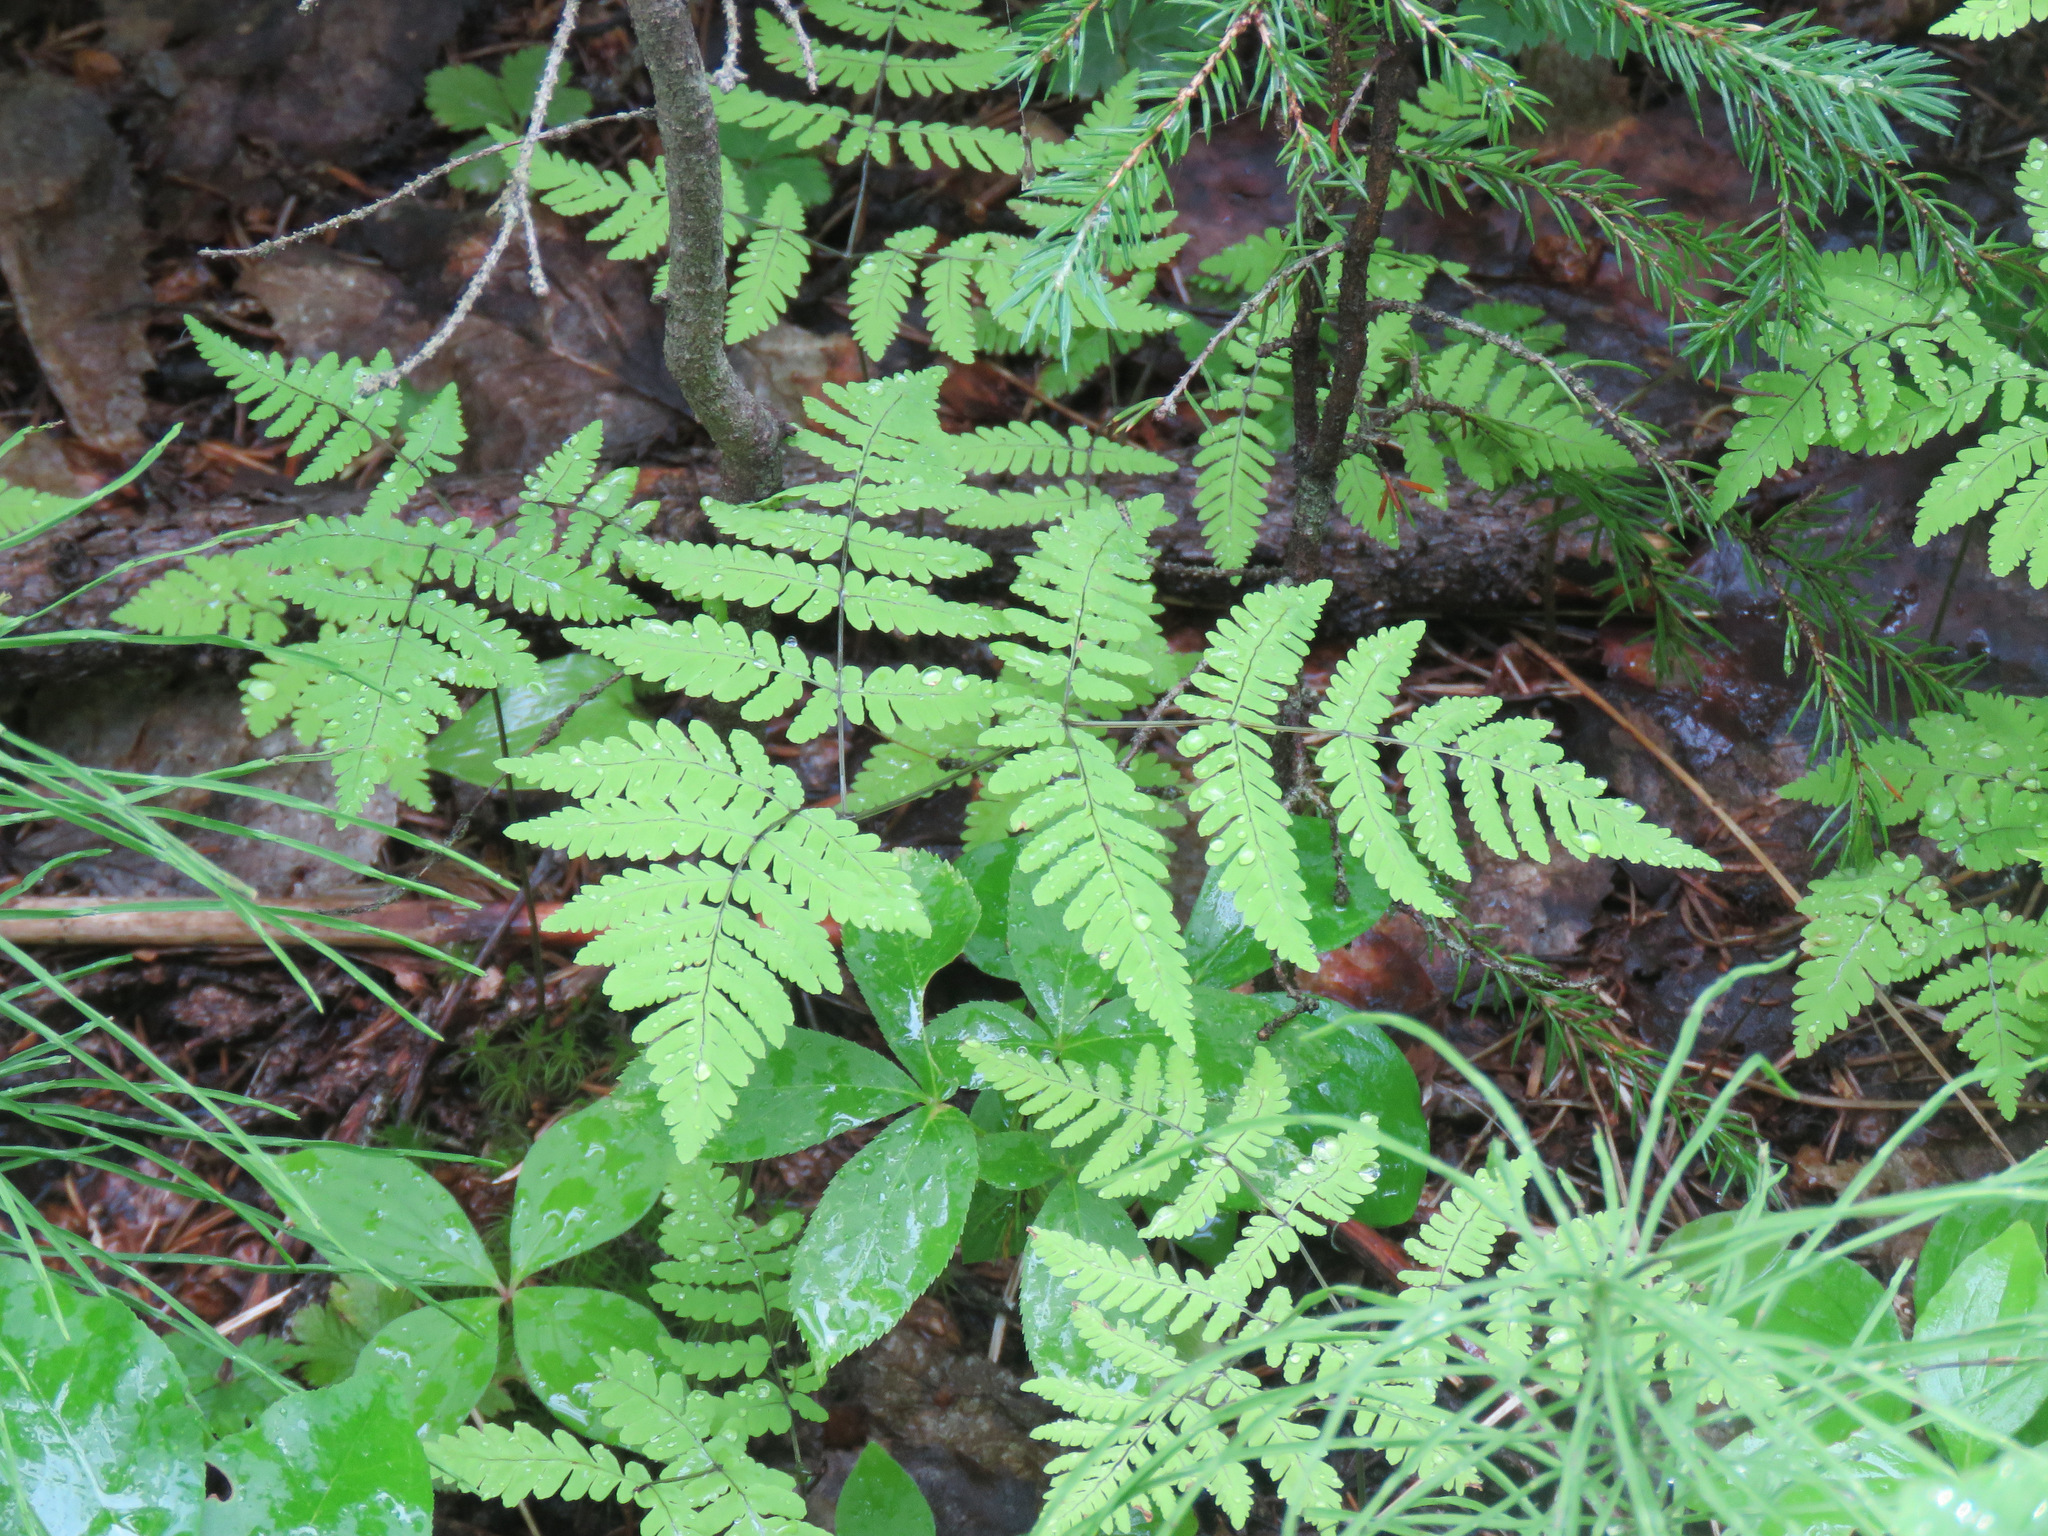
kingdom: Plantae
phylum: Tracheophyta
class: Polypodiopsida
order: Polypodiales
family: Cystopteridaceae
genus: Gymnocarpium
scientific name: Gymnocarpium dryopteris
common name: Oak fern
